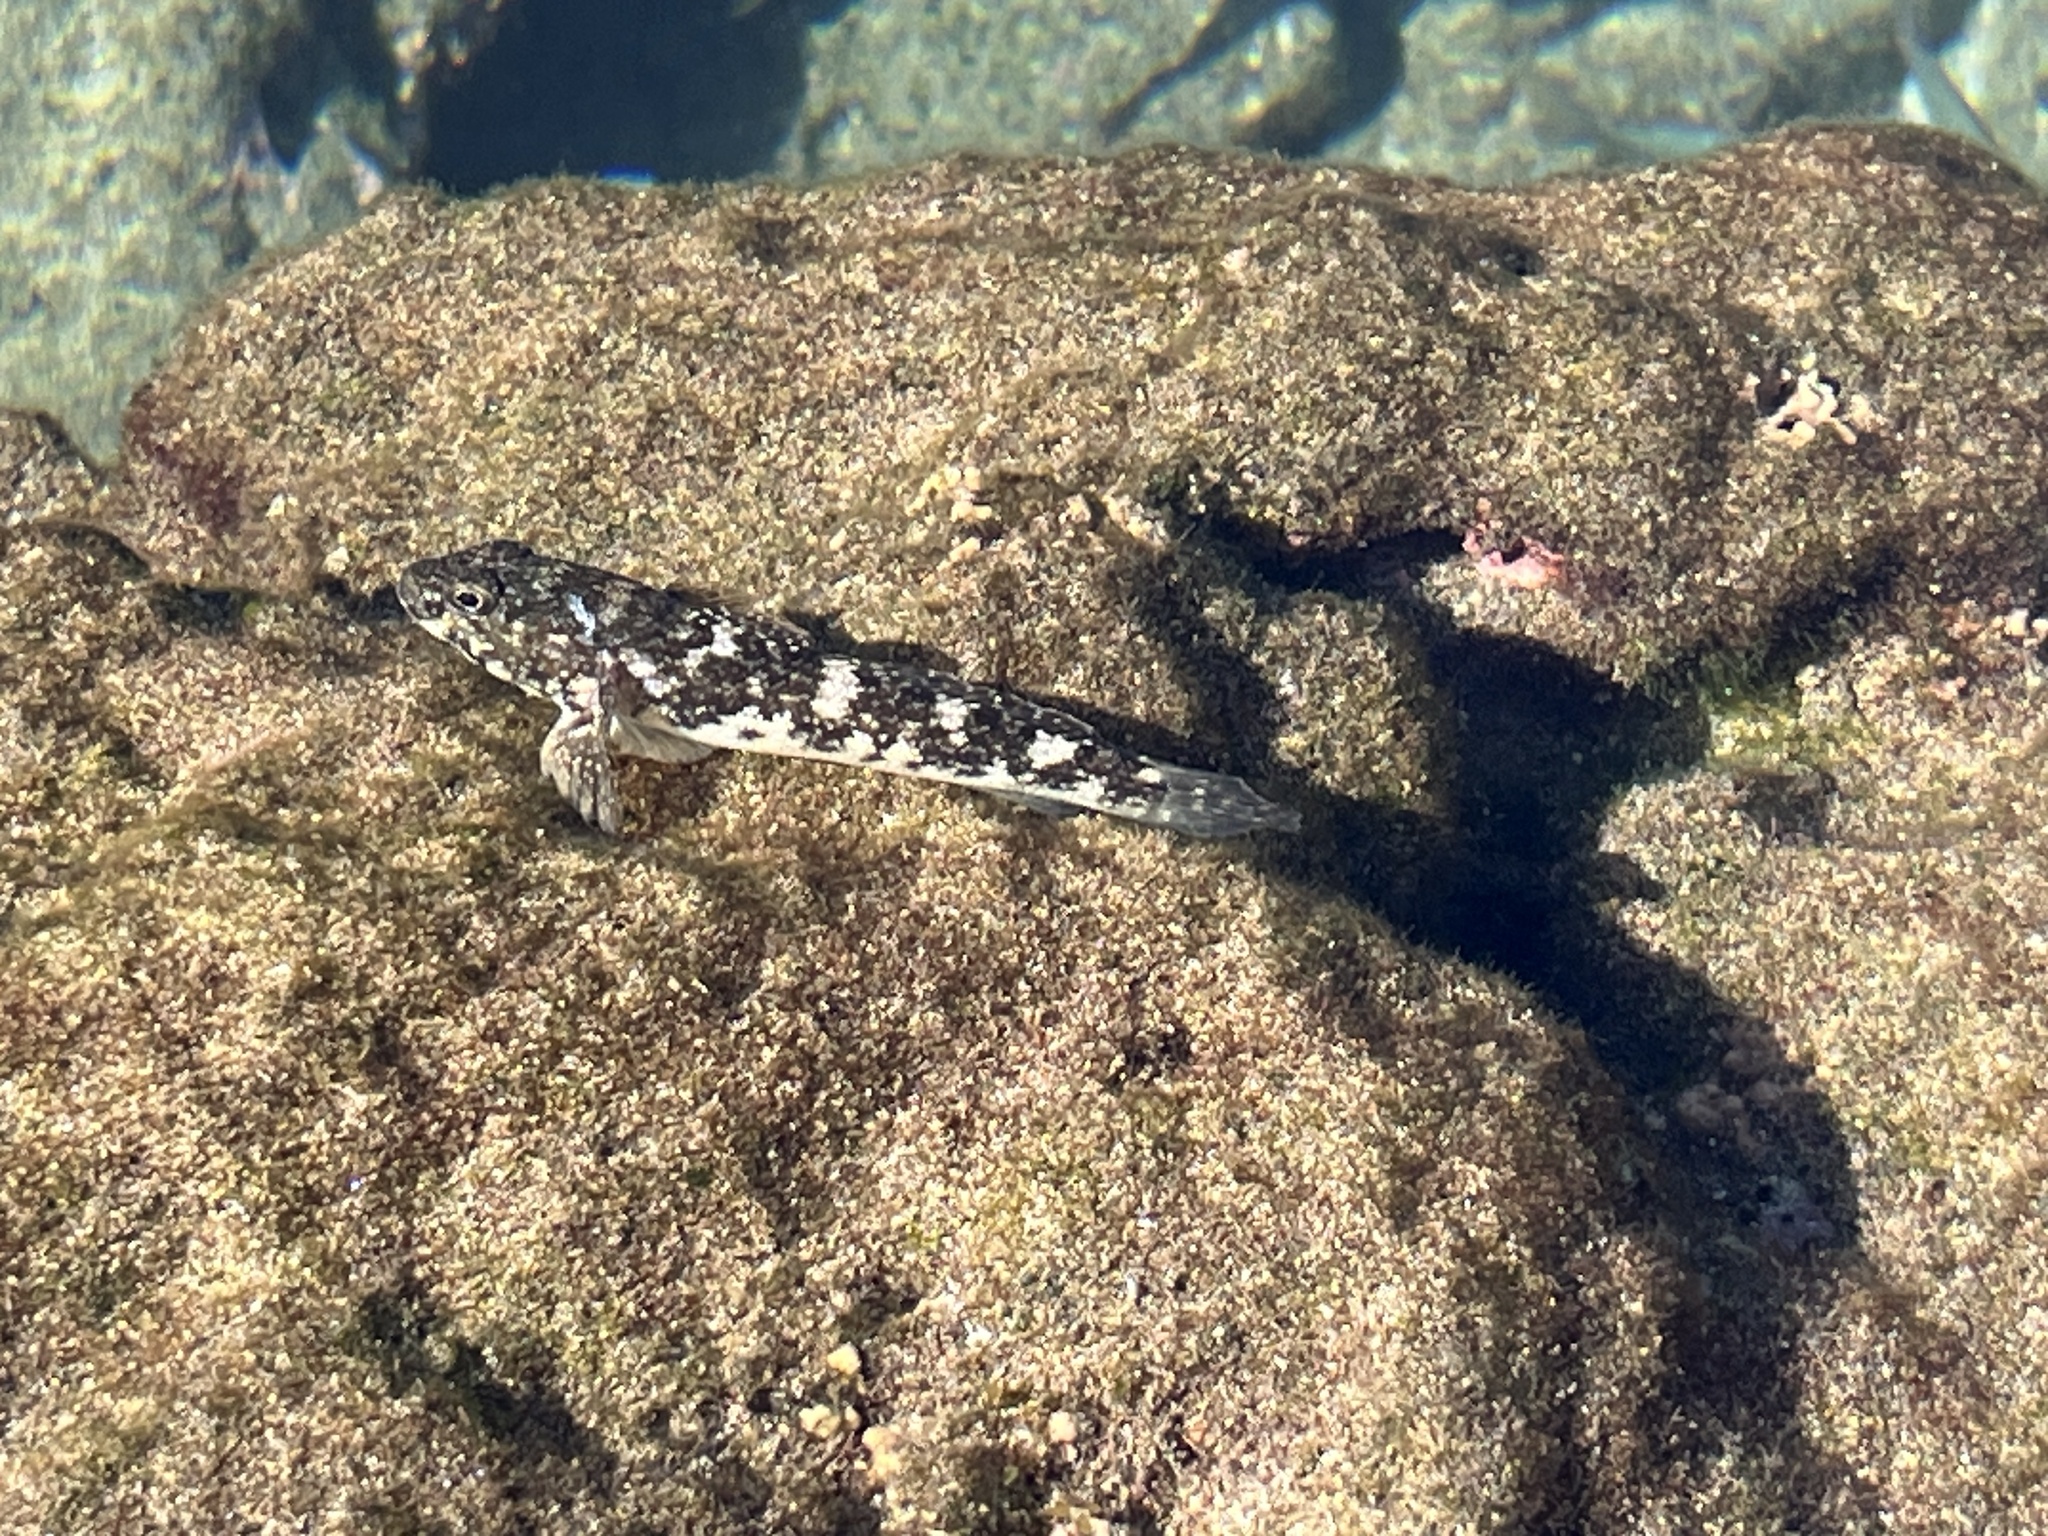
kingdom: Animalia
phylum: Chordata
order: Perciformes
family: Gobiidae
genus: Mauligobius
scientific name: Mauligobius maderensis
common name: Rock goby
